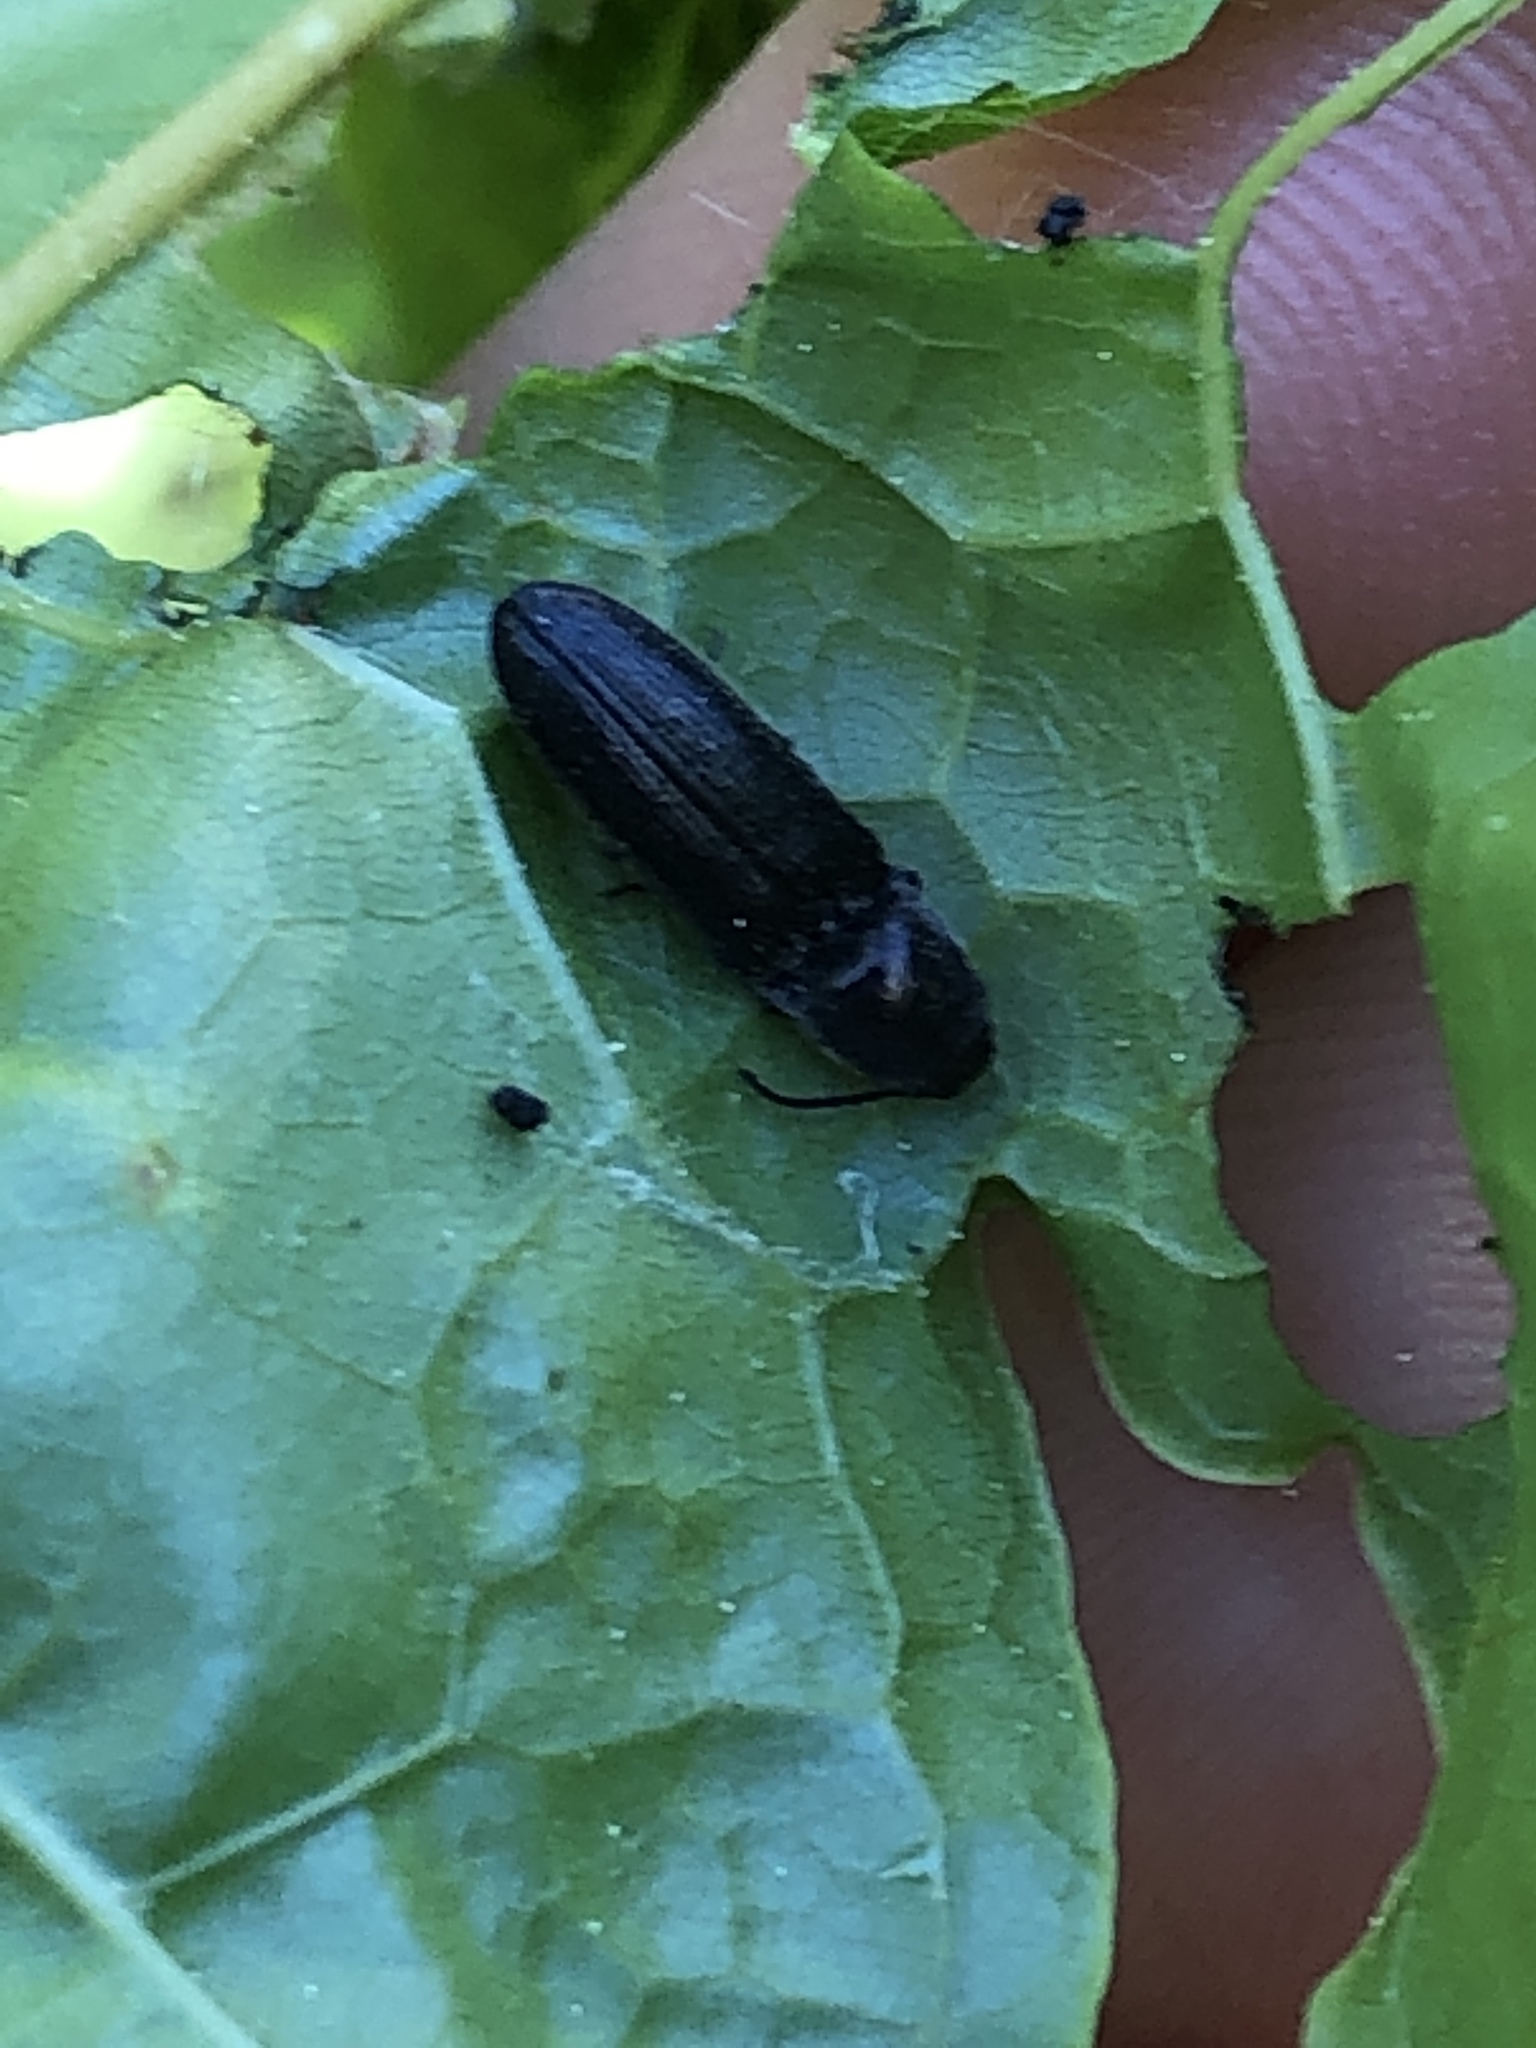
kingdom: Animalia
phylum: Arthropoda
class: Insecta
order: Coleoptera
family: Elateridae
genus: Limonius
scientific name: Limonius minutus
